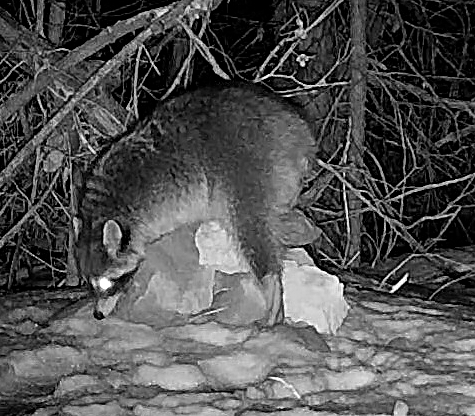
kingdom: Animalia
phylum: Chordata
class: Mammalia
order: Carnivora
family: Procyonidae
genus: Procyon
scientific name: Procyon lotor
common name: Raccoon
